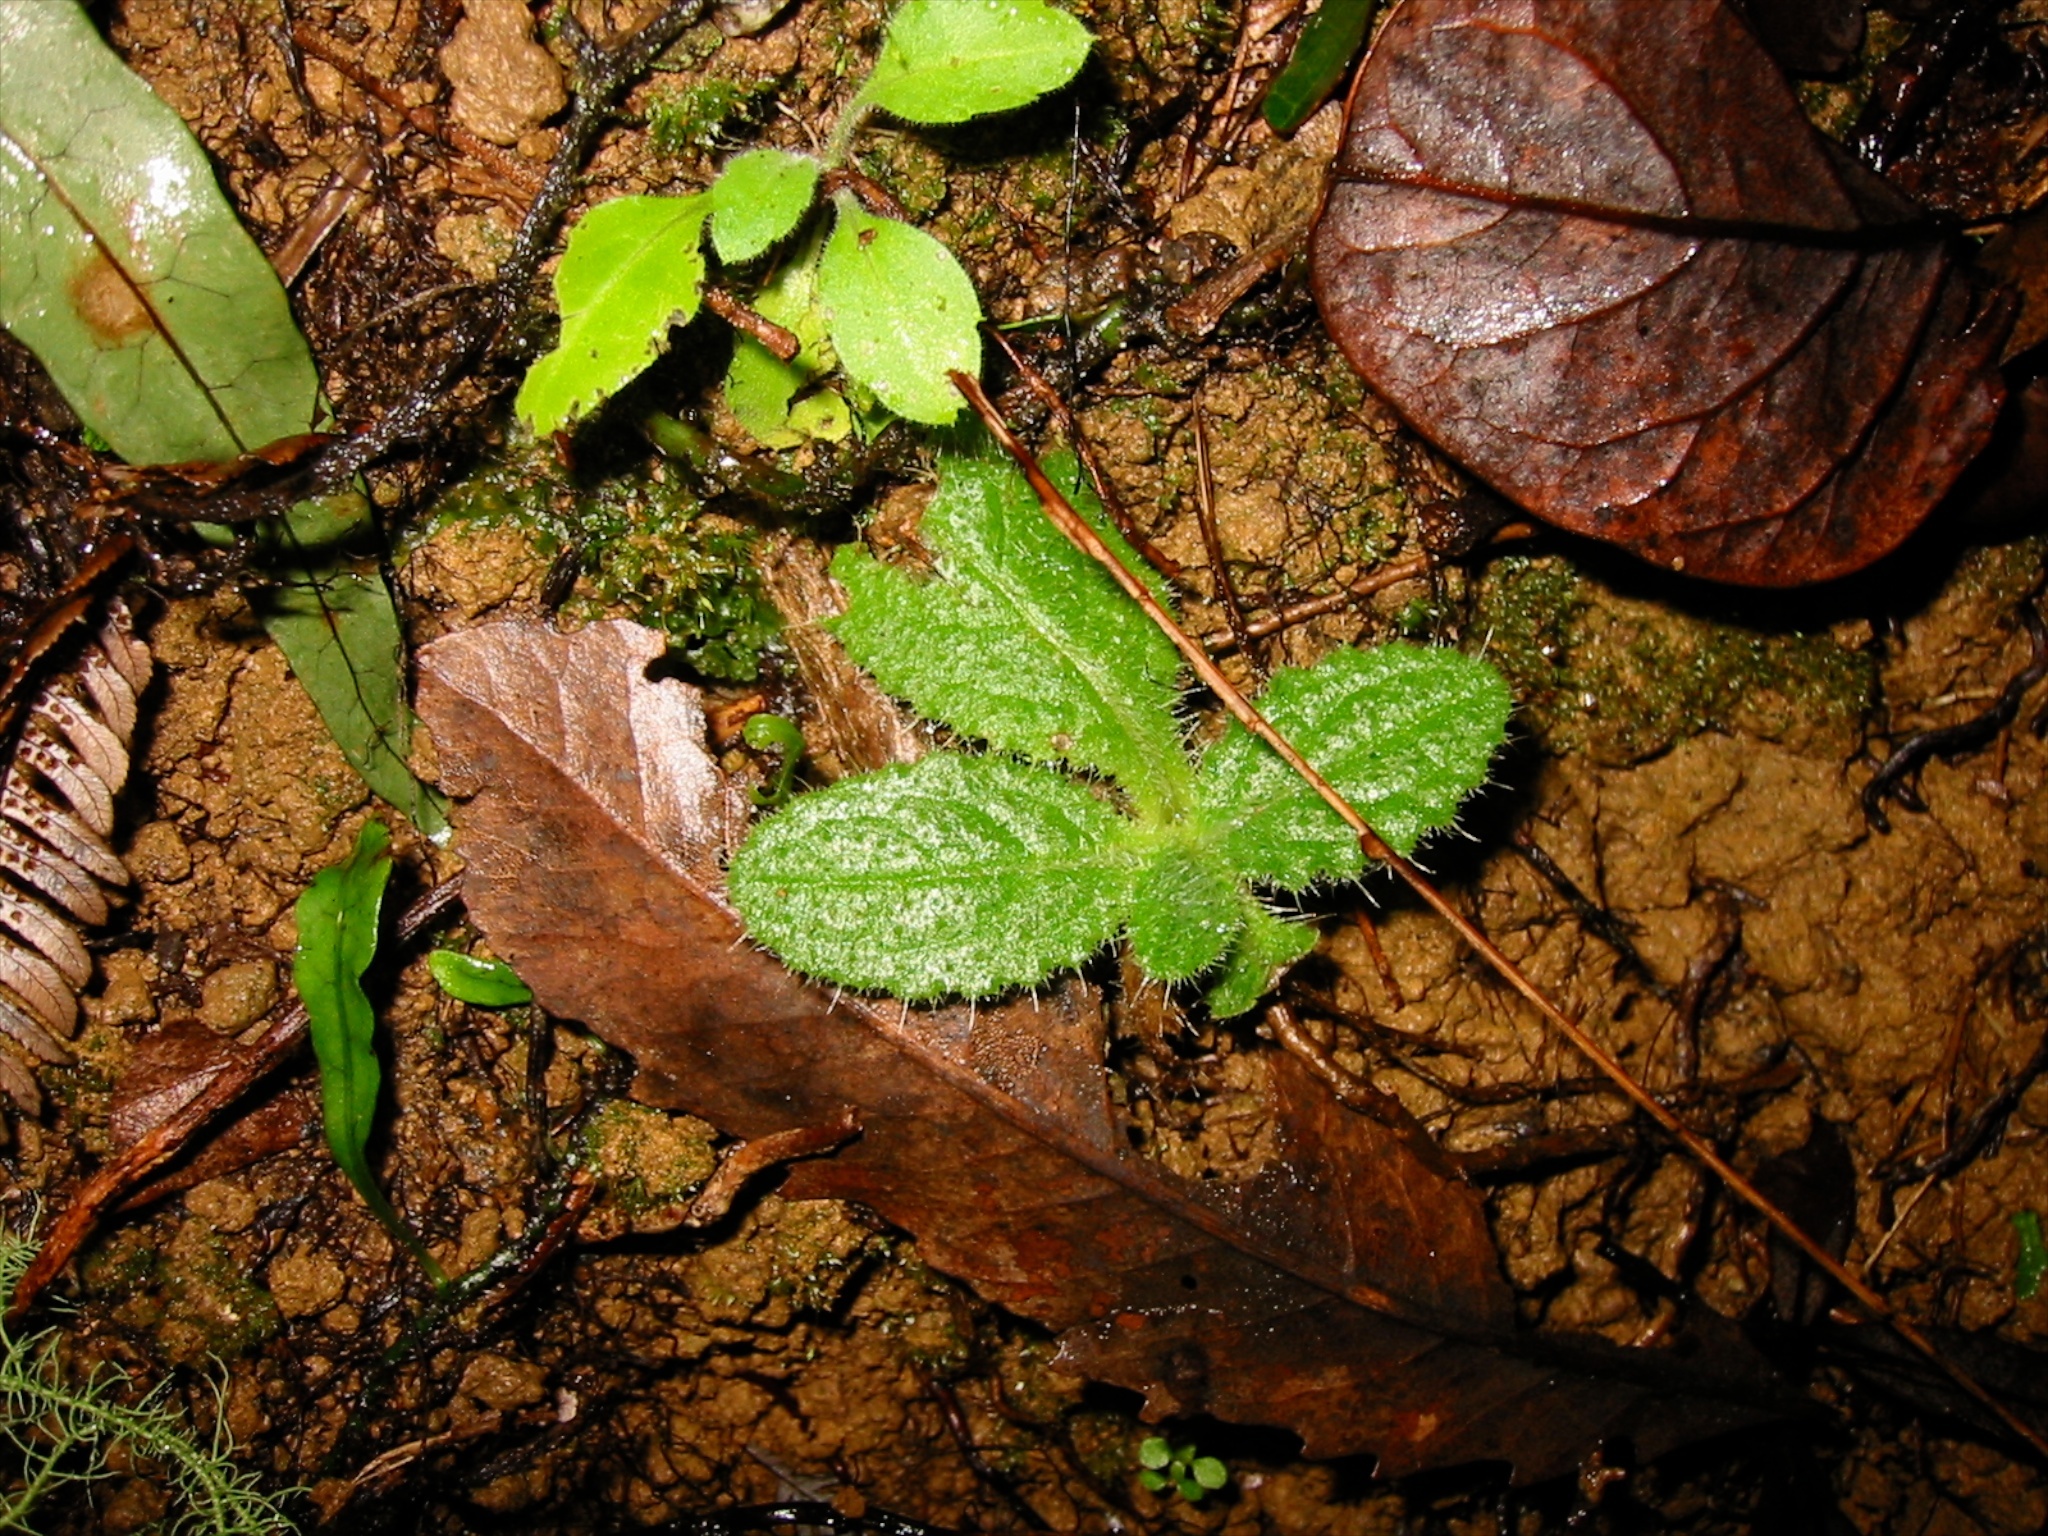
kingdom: Plantae
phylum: Tracheophyta
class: Magnoliopsida
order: Asterales
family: Asteraceae
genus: Cirsium
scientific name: Cirsium vulgare
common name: Bull thistle
